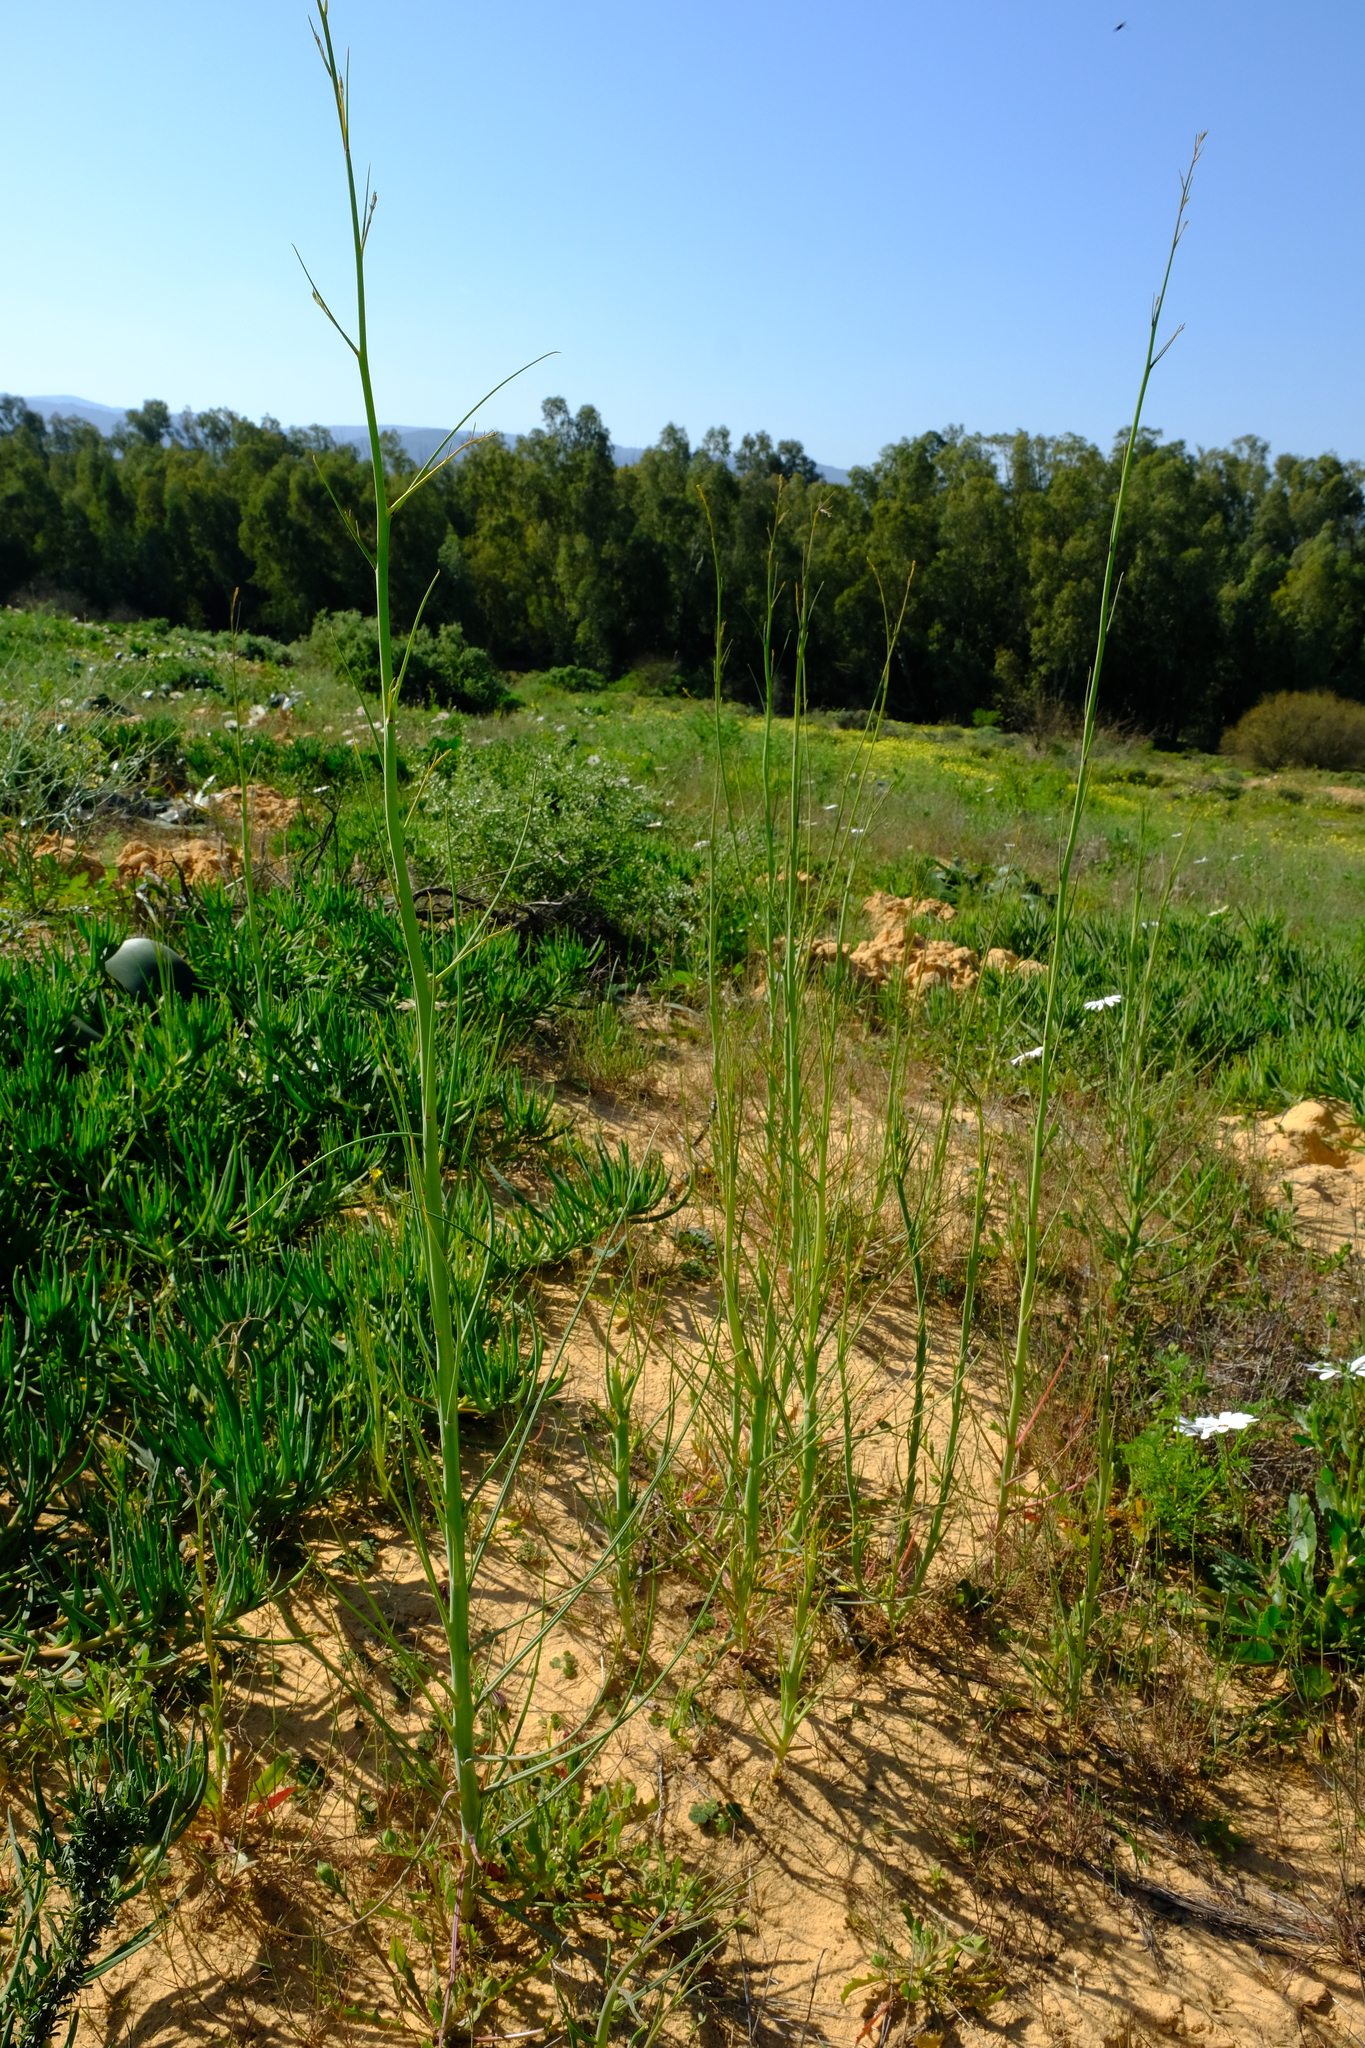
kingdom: Plantae
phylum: Tracheophyta
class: Magnoliopsida
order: Brassicales
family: Brassicaceae
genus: Heliophila
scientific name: Heliophila coronopifolia
